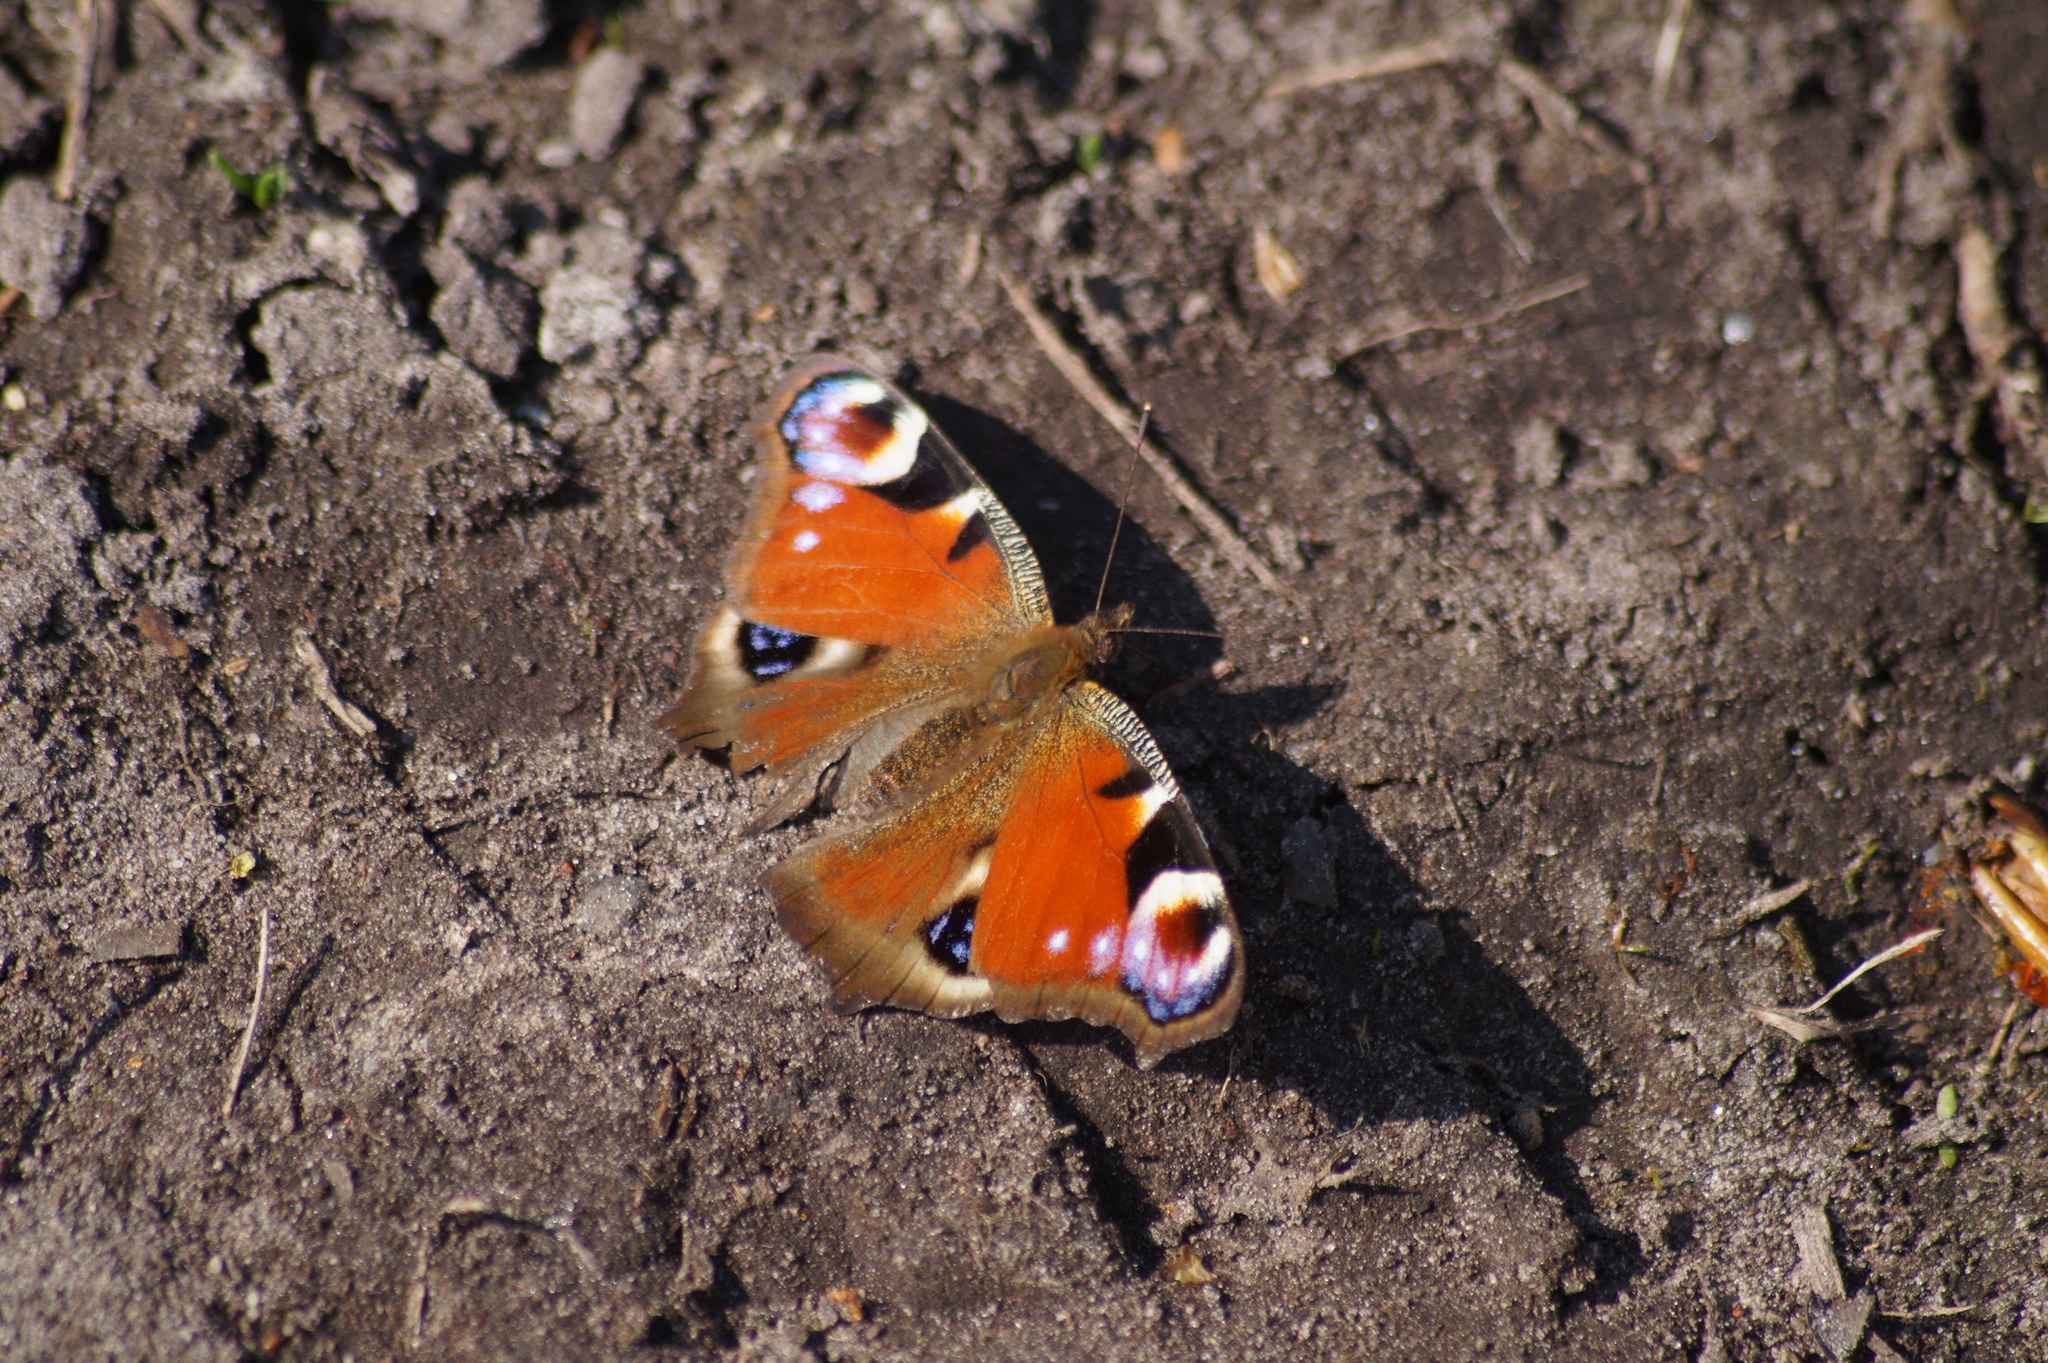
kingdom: Animalia
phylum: Arthropoda
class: Insecta
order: Lepidoptera
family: Nymphalidae
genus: Aglais
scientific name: Aglais io
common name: Peacock
